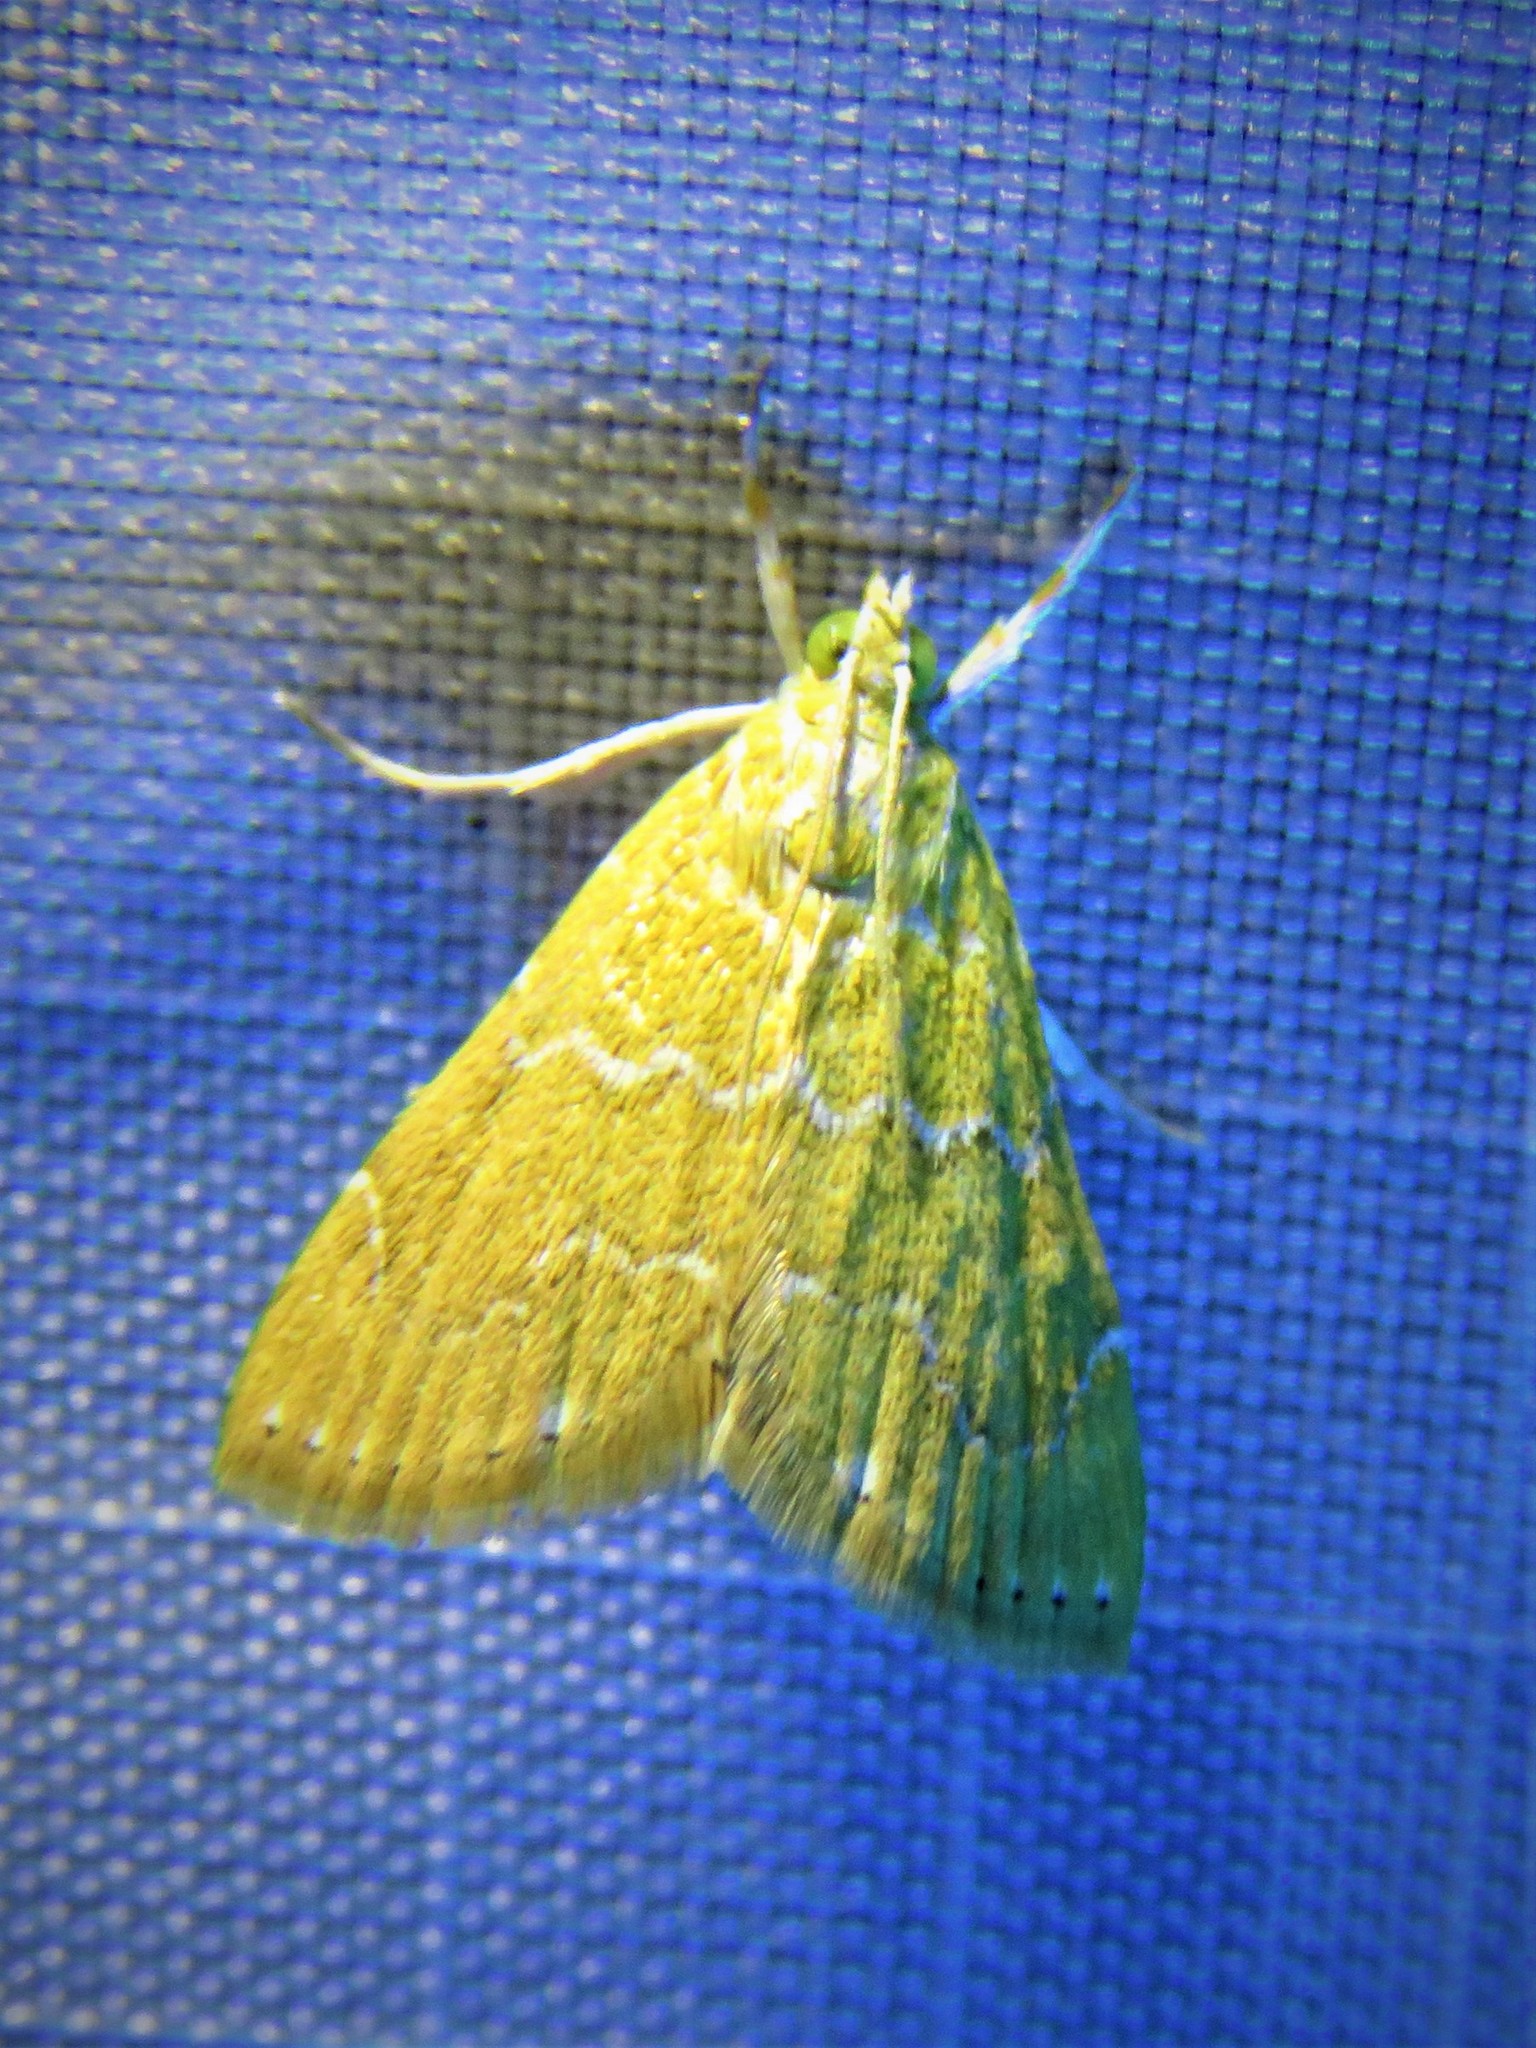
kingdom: Animalia
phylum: Arthropoda
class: Insecta
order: Lepidoptera
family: Crambidae
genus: Glaphyria
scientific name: Glaphyria sesquistrialis
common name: White-roped glaphyria
